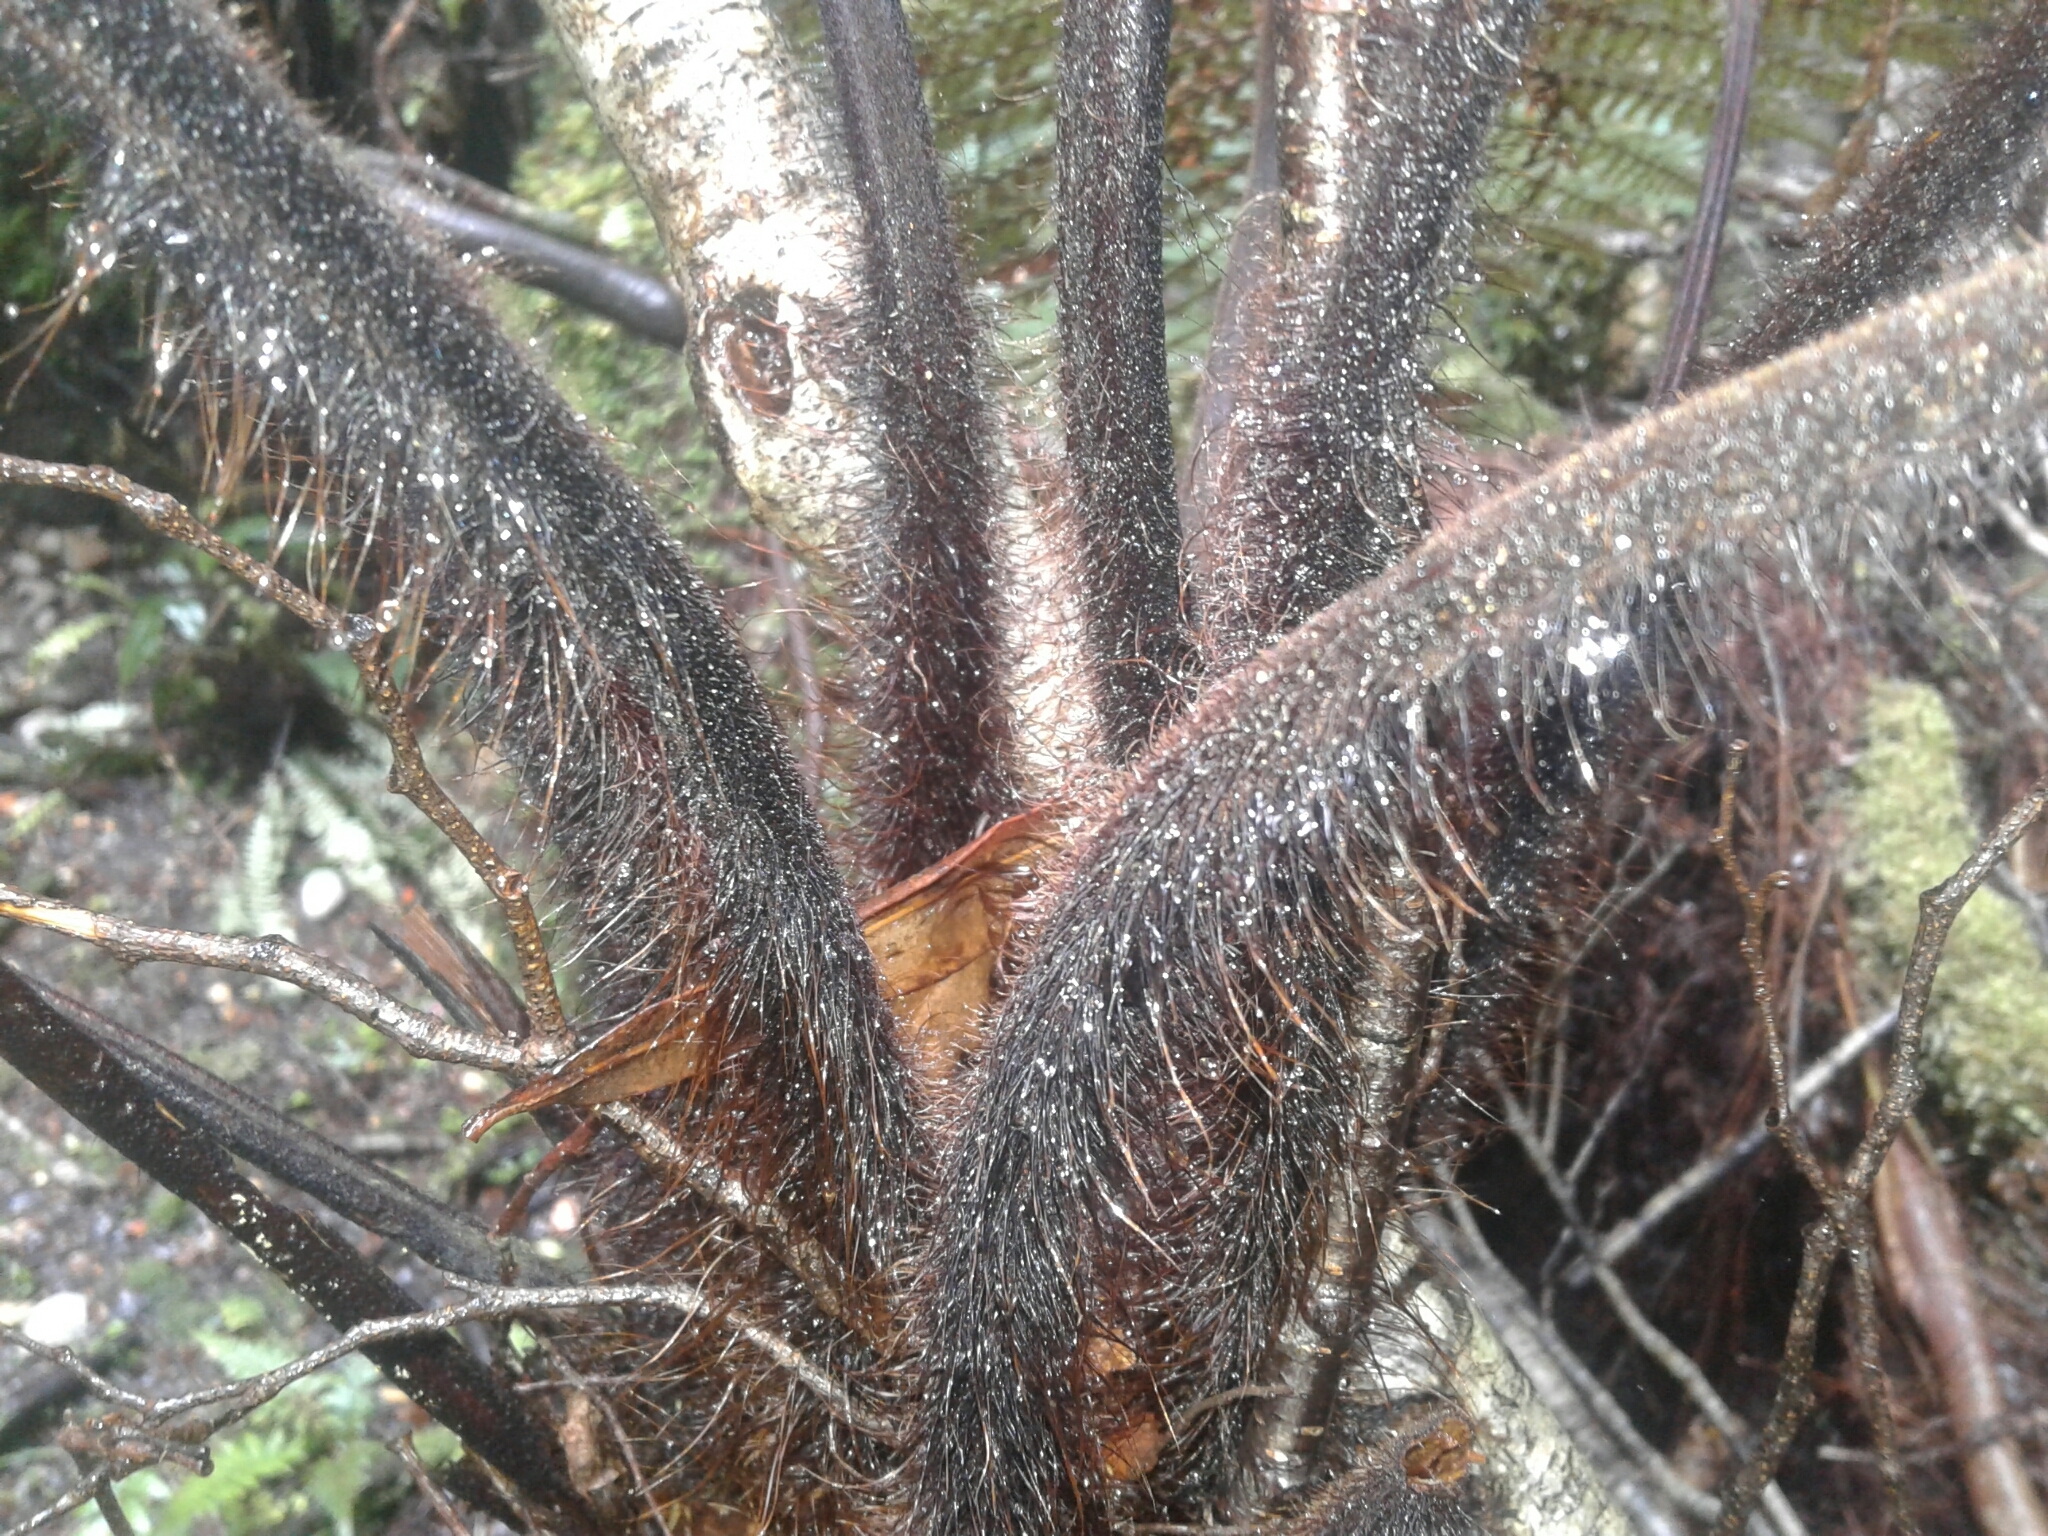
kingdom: Plantae
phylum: Tracheophyta
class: Polypodiopsida
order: Cyatheales
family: Dicksoniaceae
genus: Dicksonia
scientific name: Dicksonia squarrosa
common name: Hard treefern
